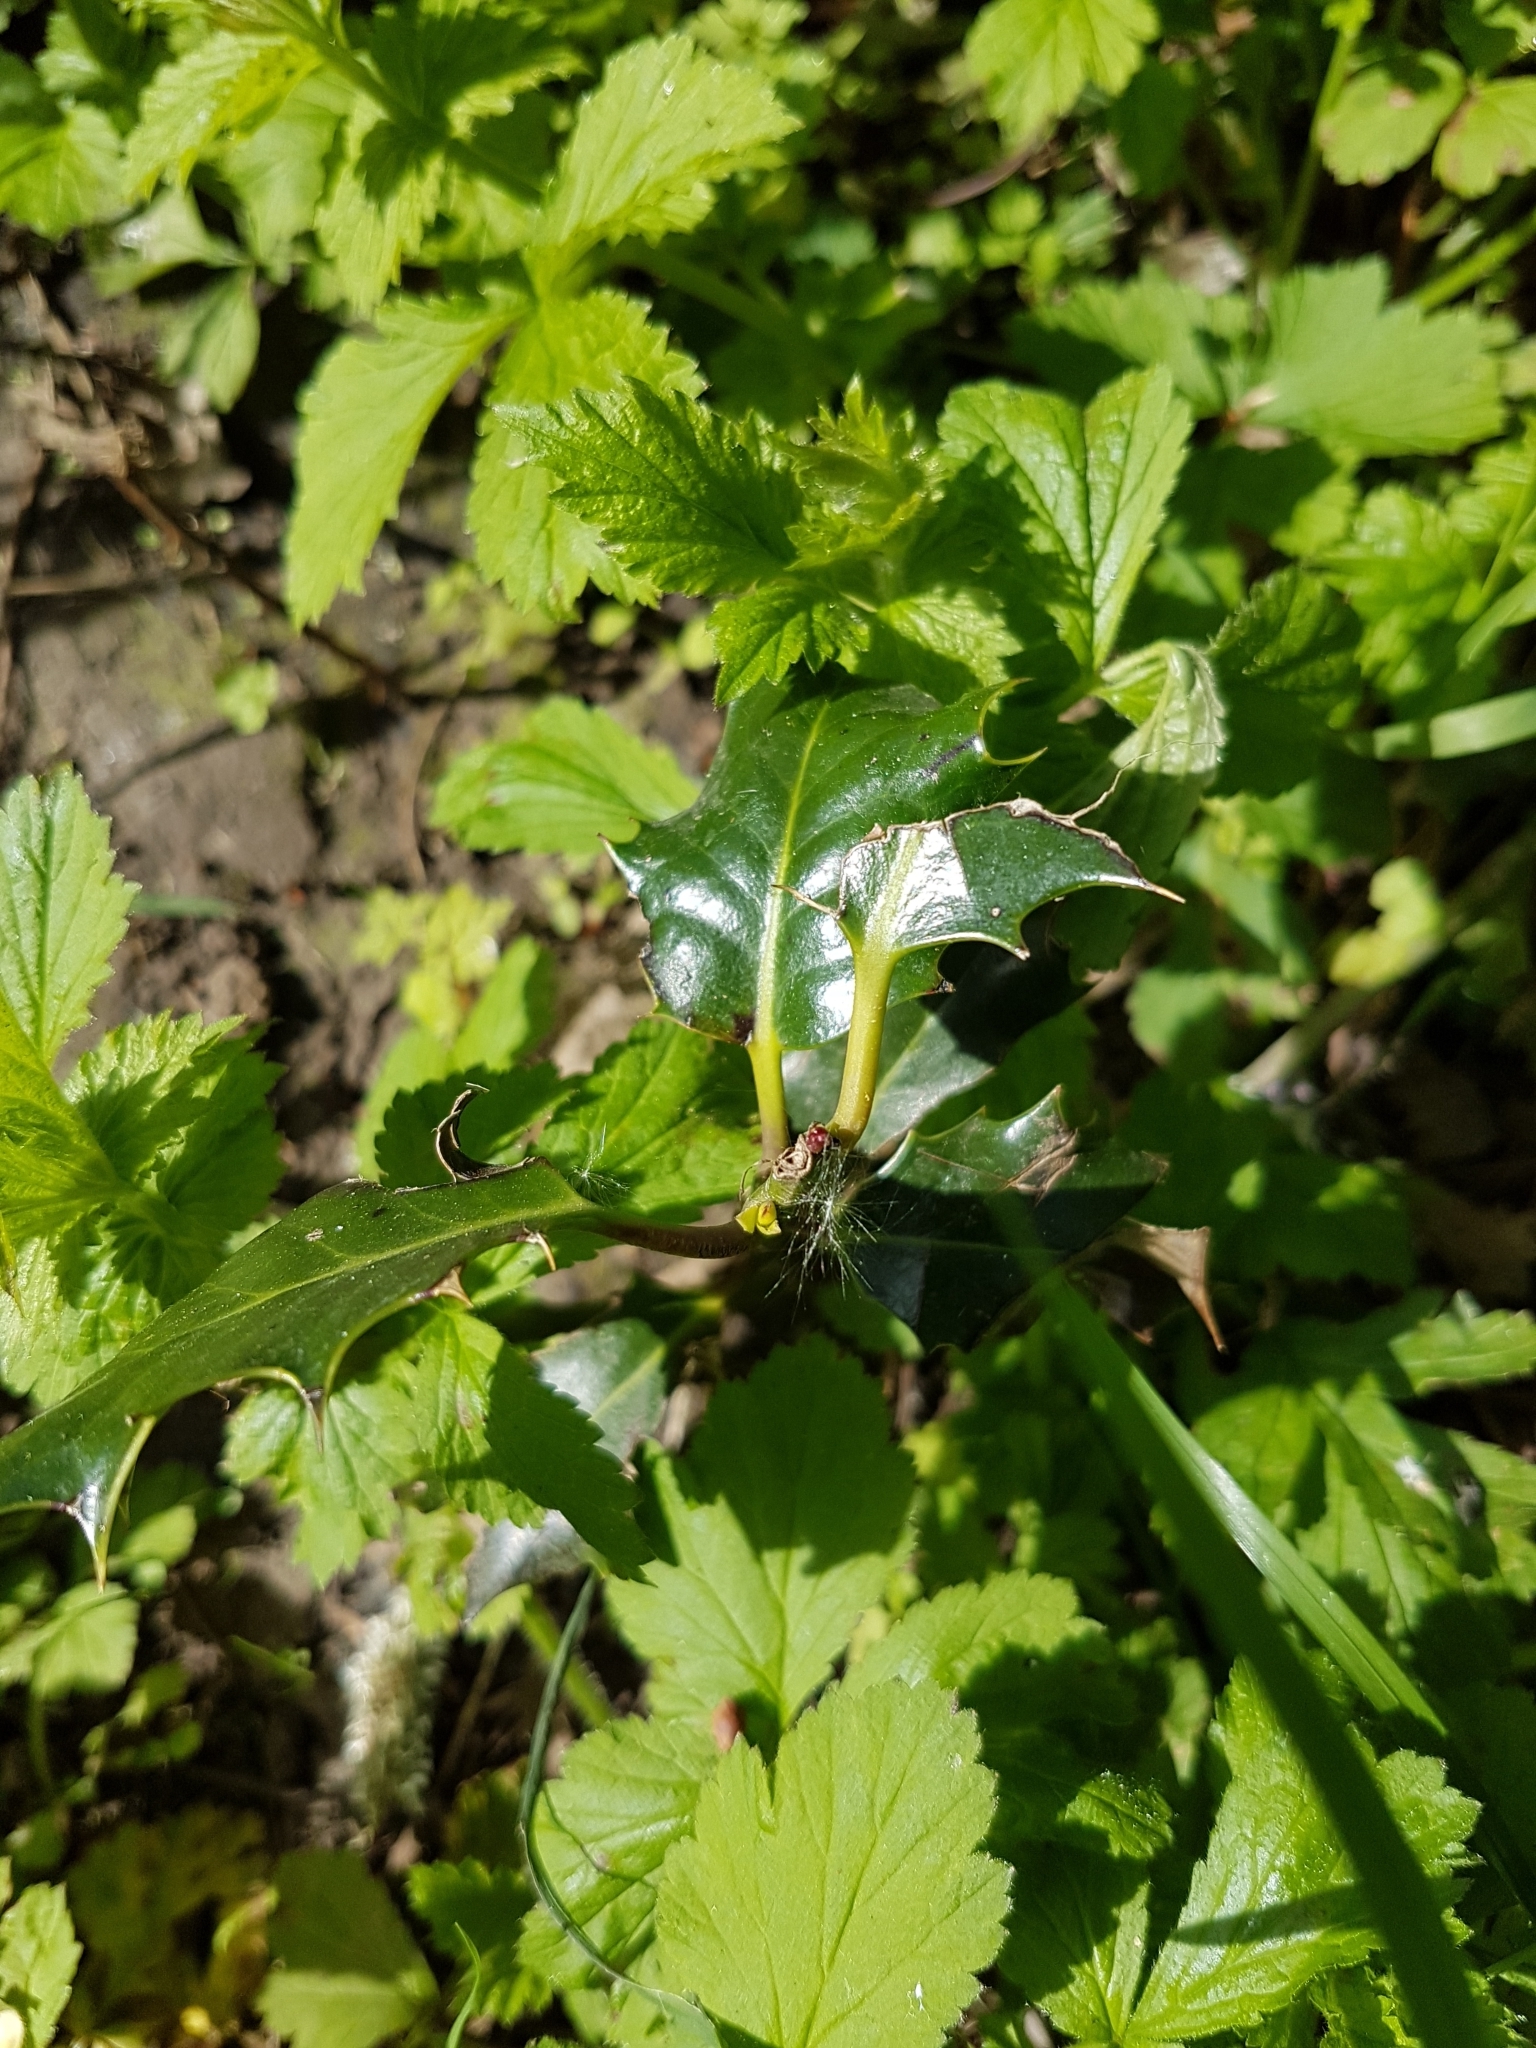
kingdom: Plantae
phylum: Tracheophyta
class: Magnoliopsida
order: Aquifoliales
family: Aquifoliaceae
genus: Ilex
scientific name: Ilex aquifolium
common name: English holly
